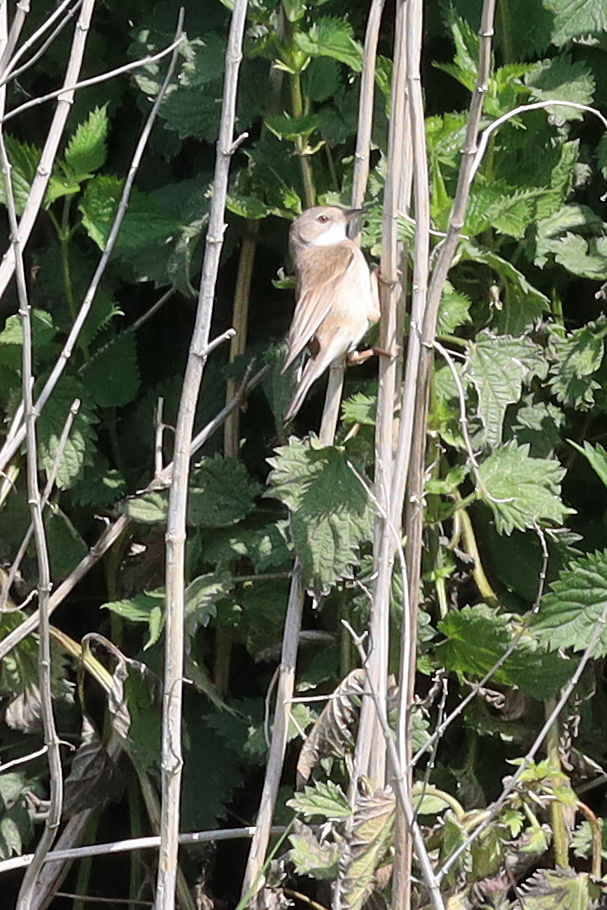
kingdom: Animalia
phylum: Chordata
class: Aves
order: Passeriformes
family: Sylviidae
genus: Sylvia
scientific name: Sylvia communis
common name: Common whitethroat
